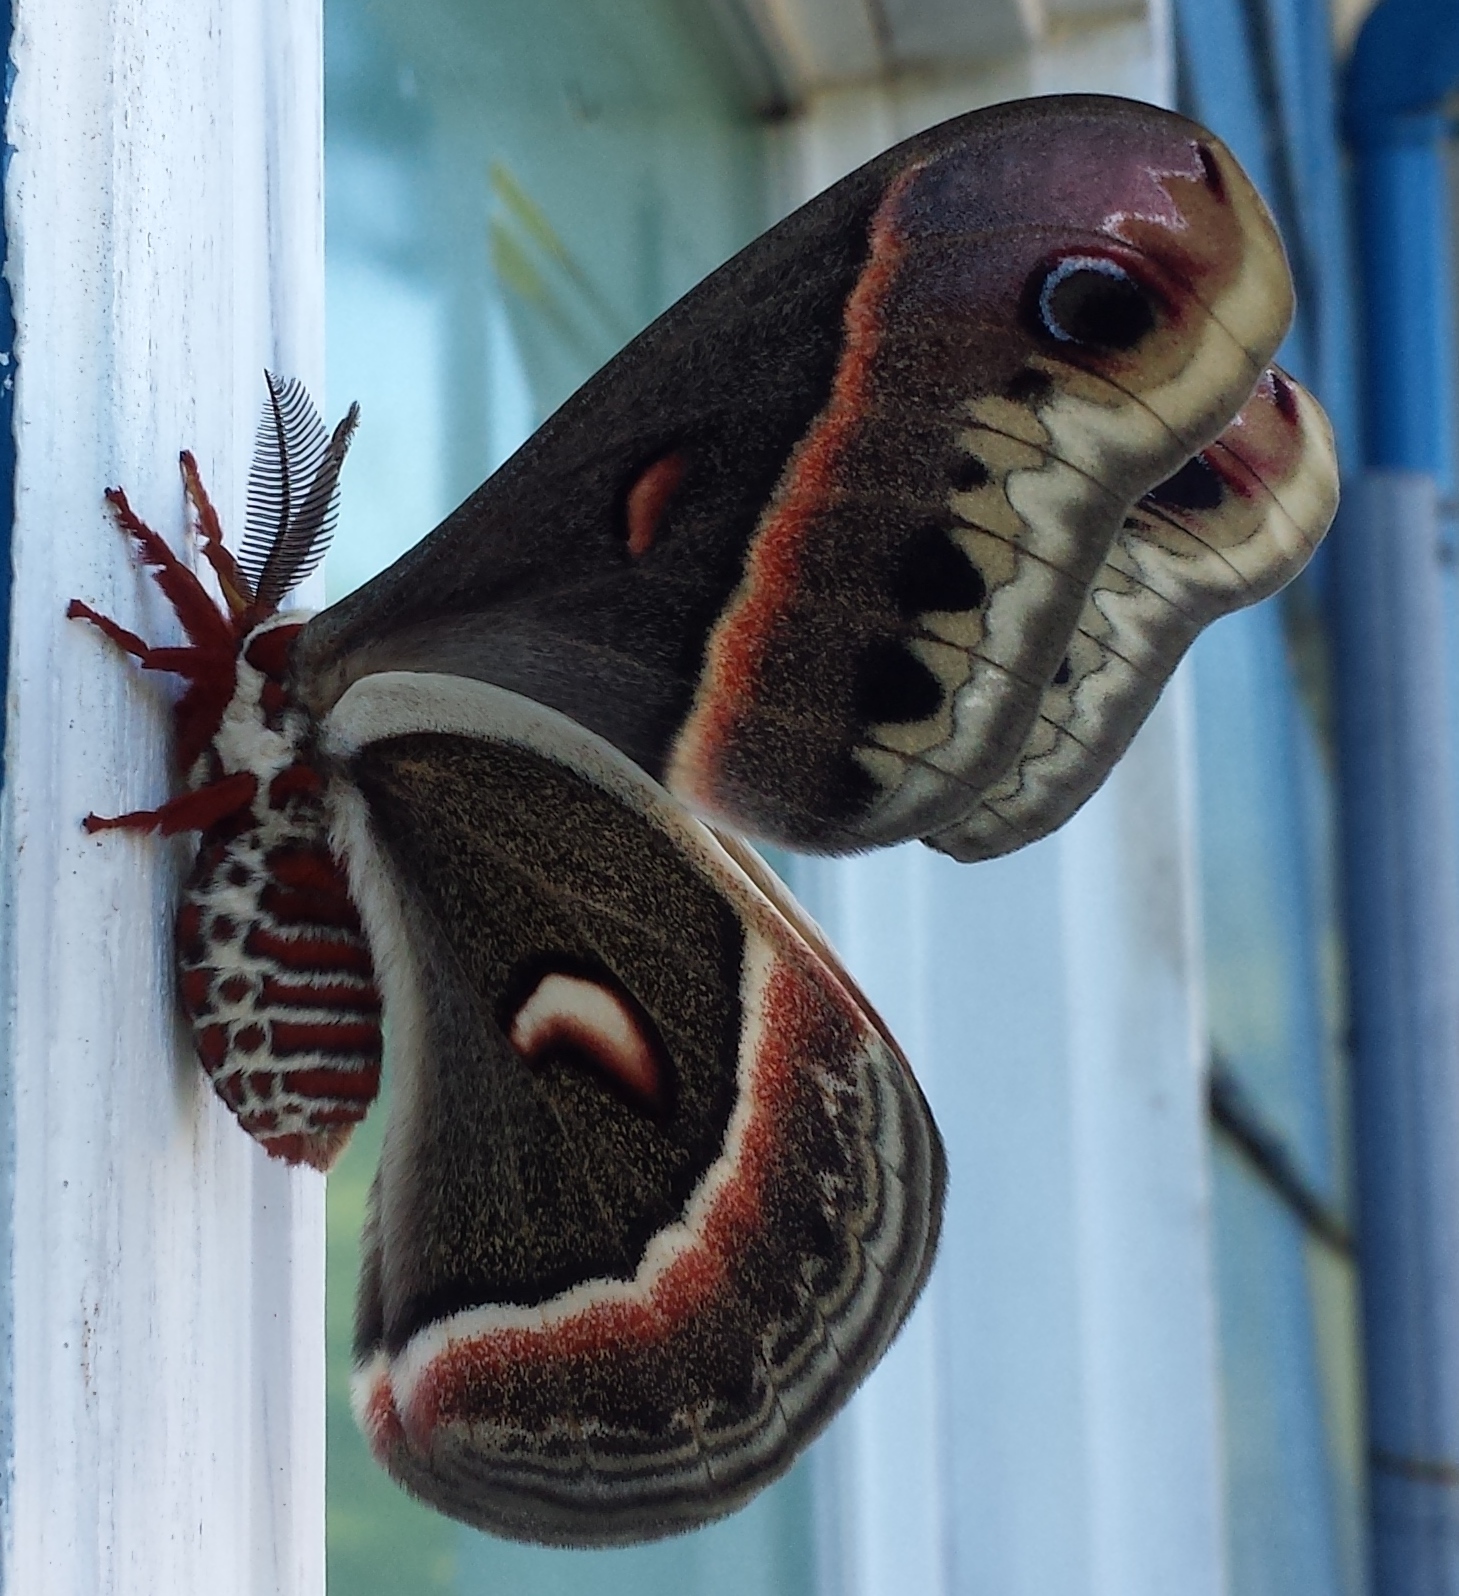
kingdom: Animalia
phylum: Arthropoda
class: Insecta
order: Lepidoptera
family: Saturniidae
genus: Hyalophora
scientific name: Hyalophora cecropia
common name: Cecropia silkmoth
